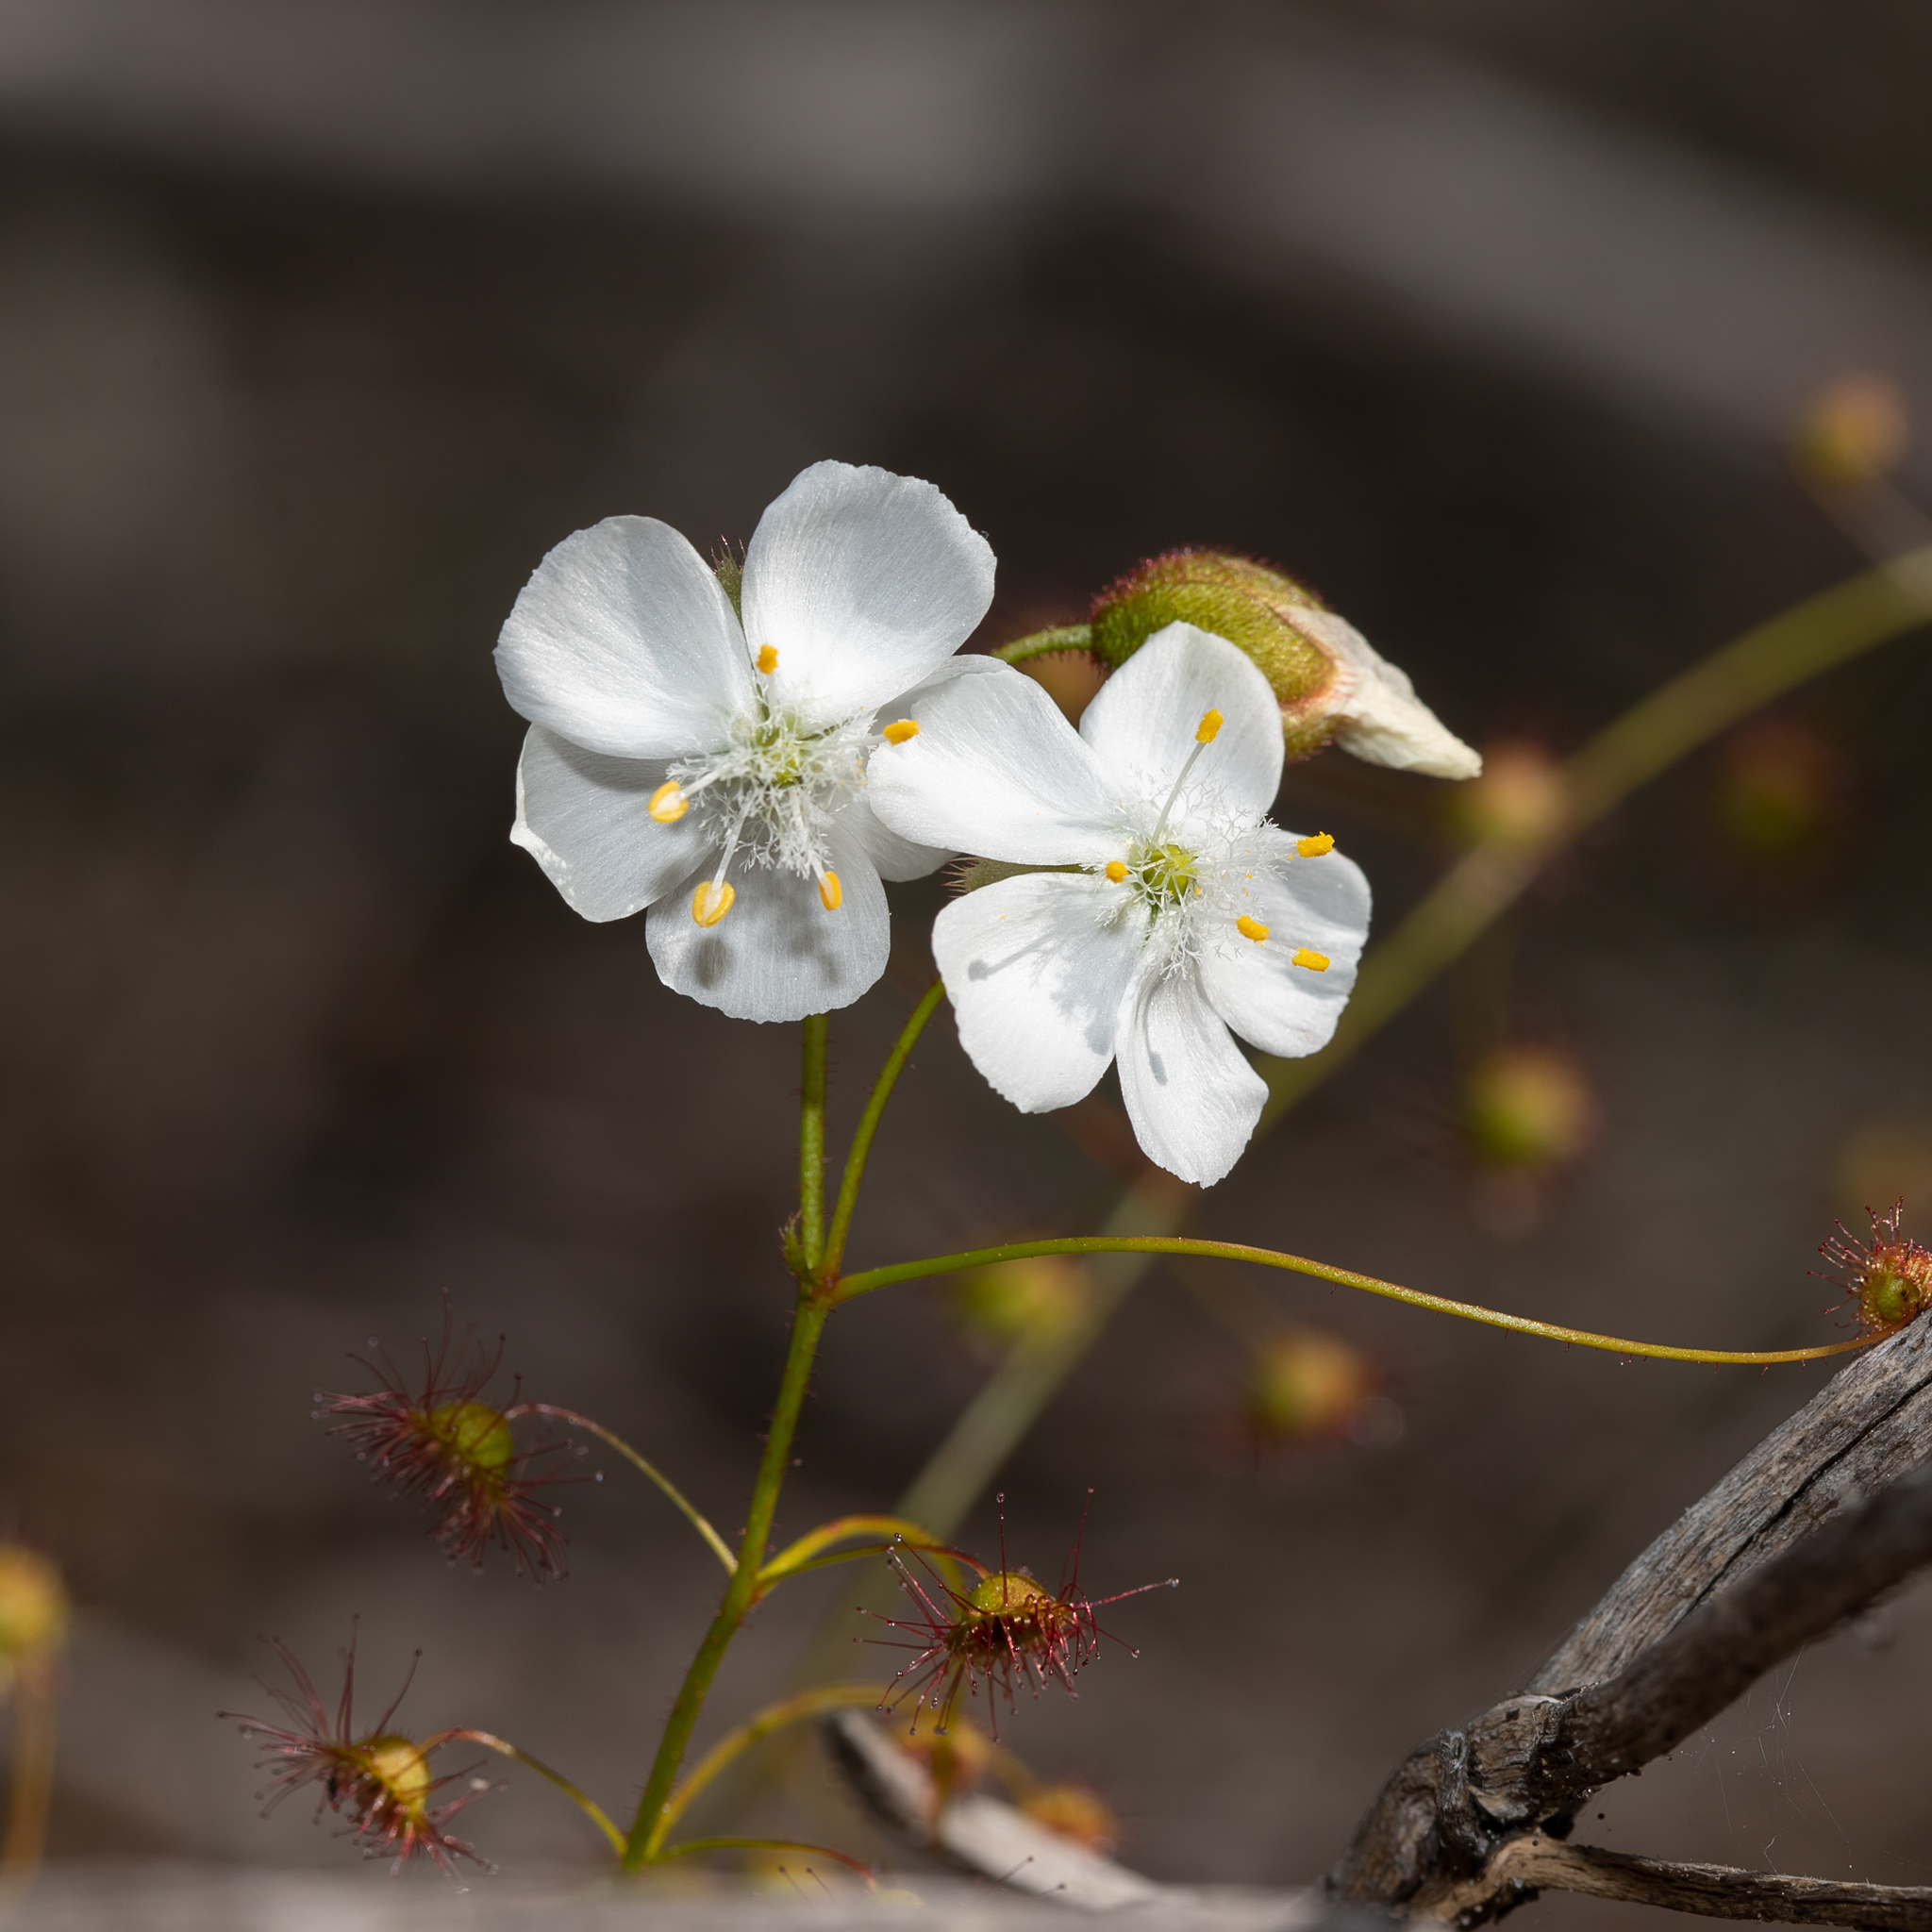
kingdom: Plantae
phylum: Tracheophyta
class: Magnoliopsida
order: Caryophyllales
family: Droseraceae
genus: Drosera
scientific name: Drosera planchonii
